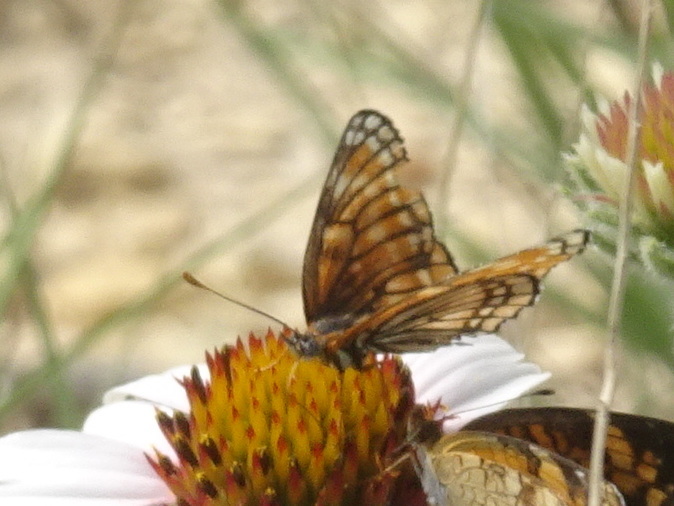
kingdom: Animalia
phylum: Arthropoda
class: Insecta
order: Lepidoptera
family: Nymphalidae
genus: Thessalia
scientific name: Thessalia leanira
